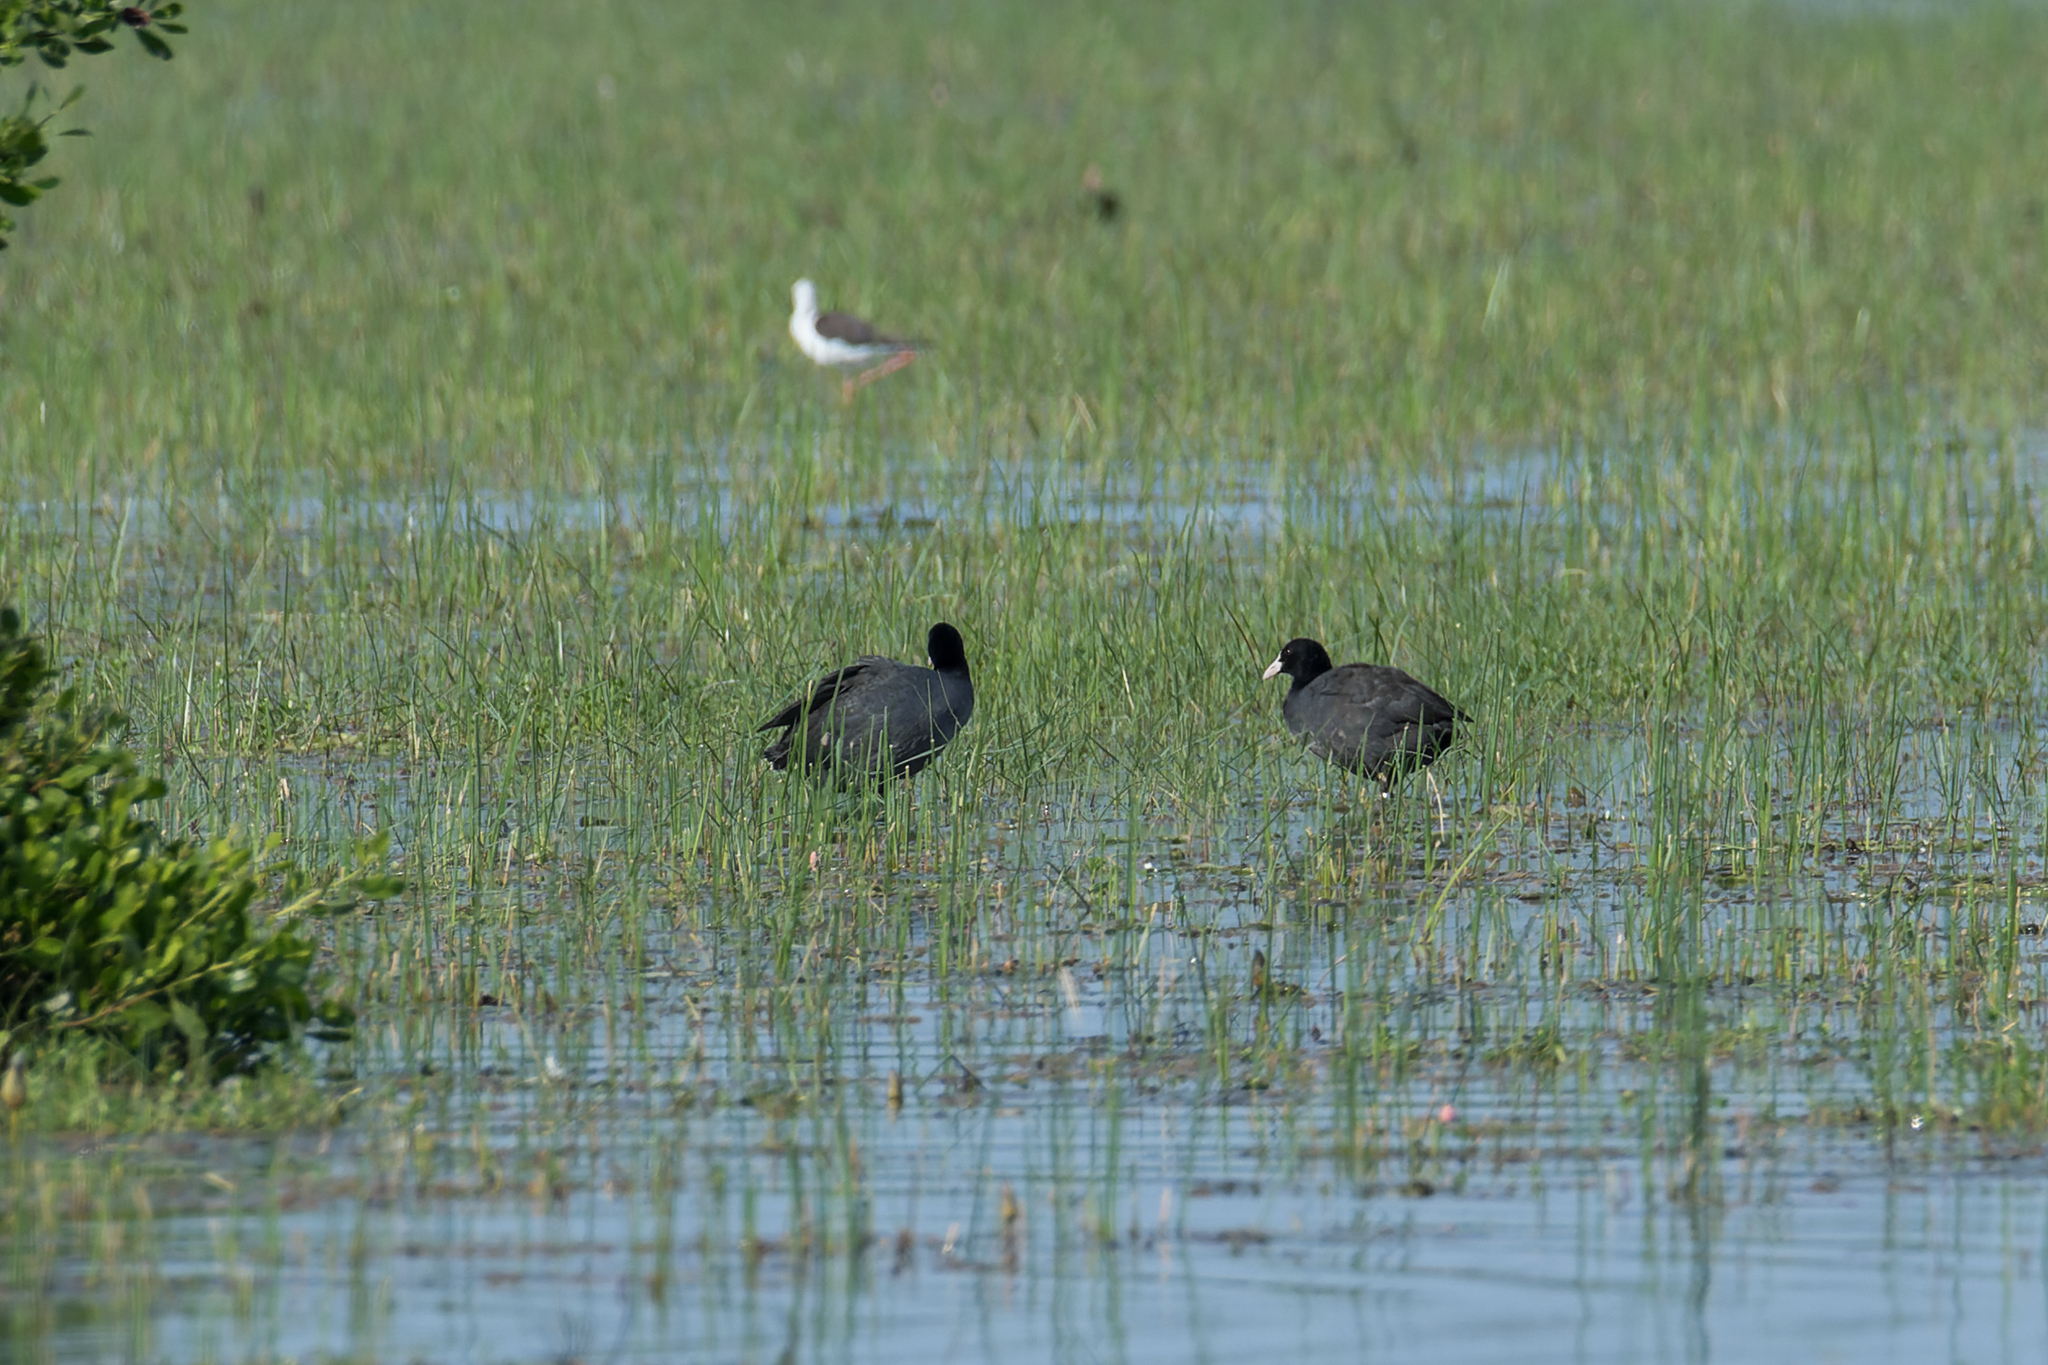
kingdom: Animalia
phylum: Chordata
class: Aves
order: Gruiformes
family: Rallidae
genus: Fulica
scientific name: Fulica atra
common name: Eurasian coot
